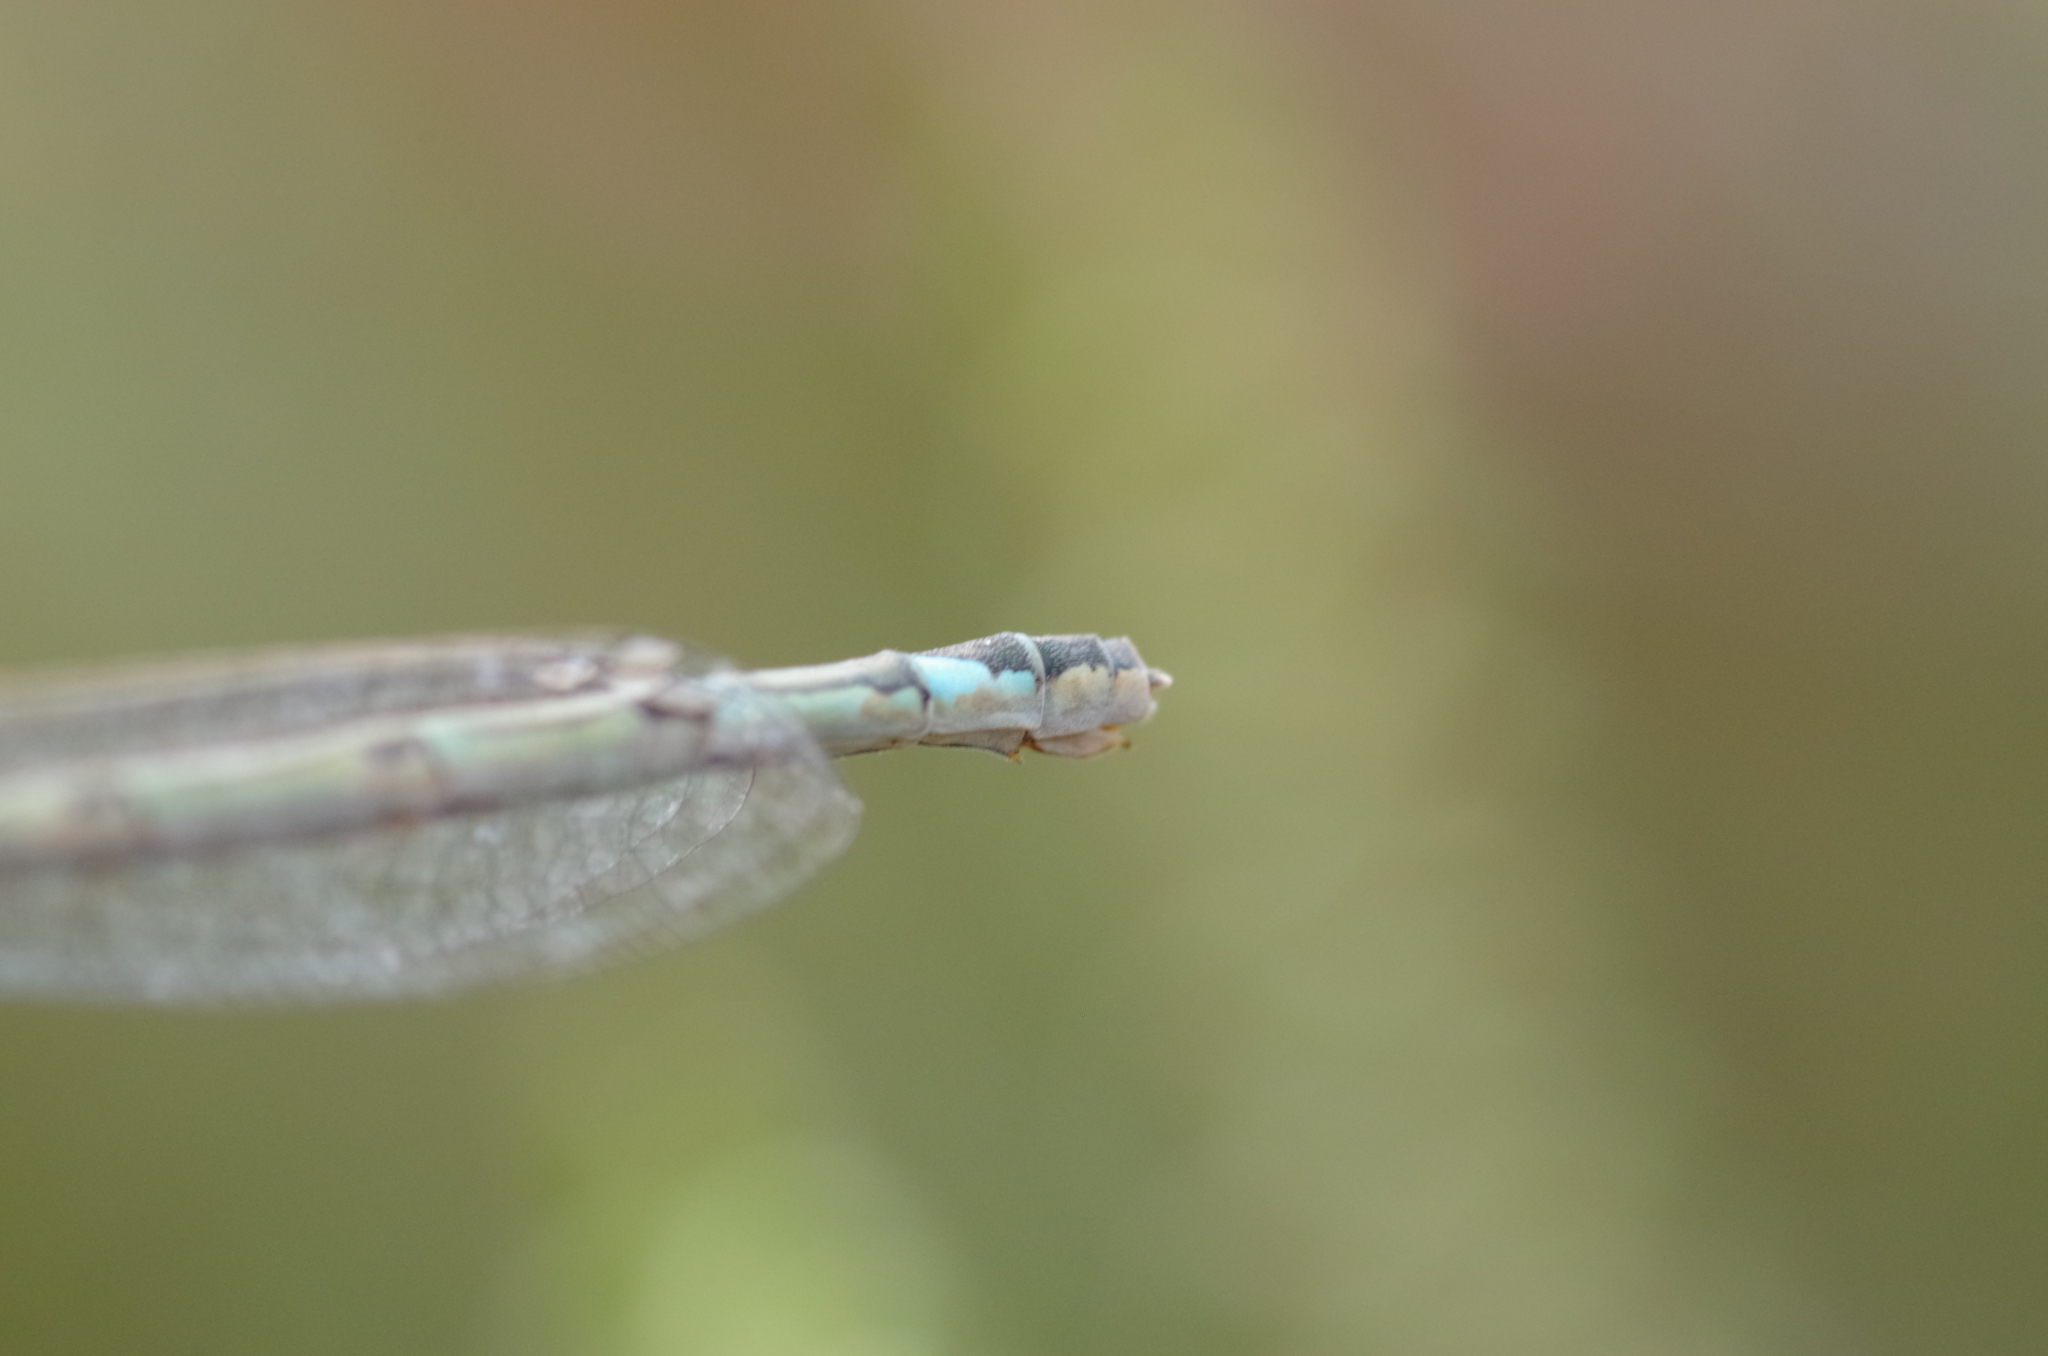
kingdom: Animalia
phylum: Arthropoda
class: Insecta
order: Odonata
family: Coenagrionidae
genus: Enallagma
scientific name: Enallagma cyathigerum
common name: Common blue damselfly
